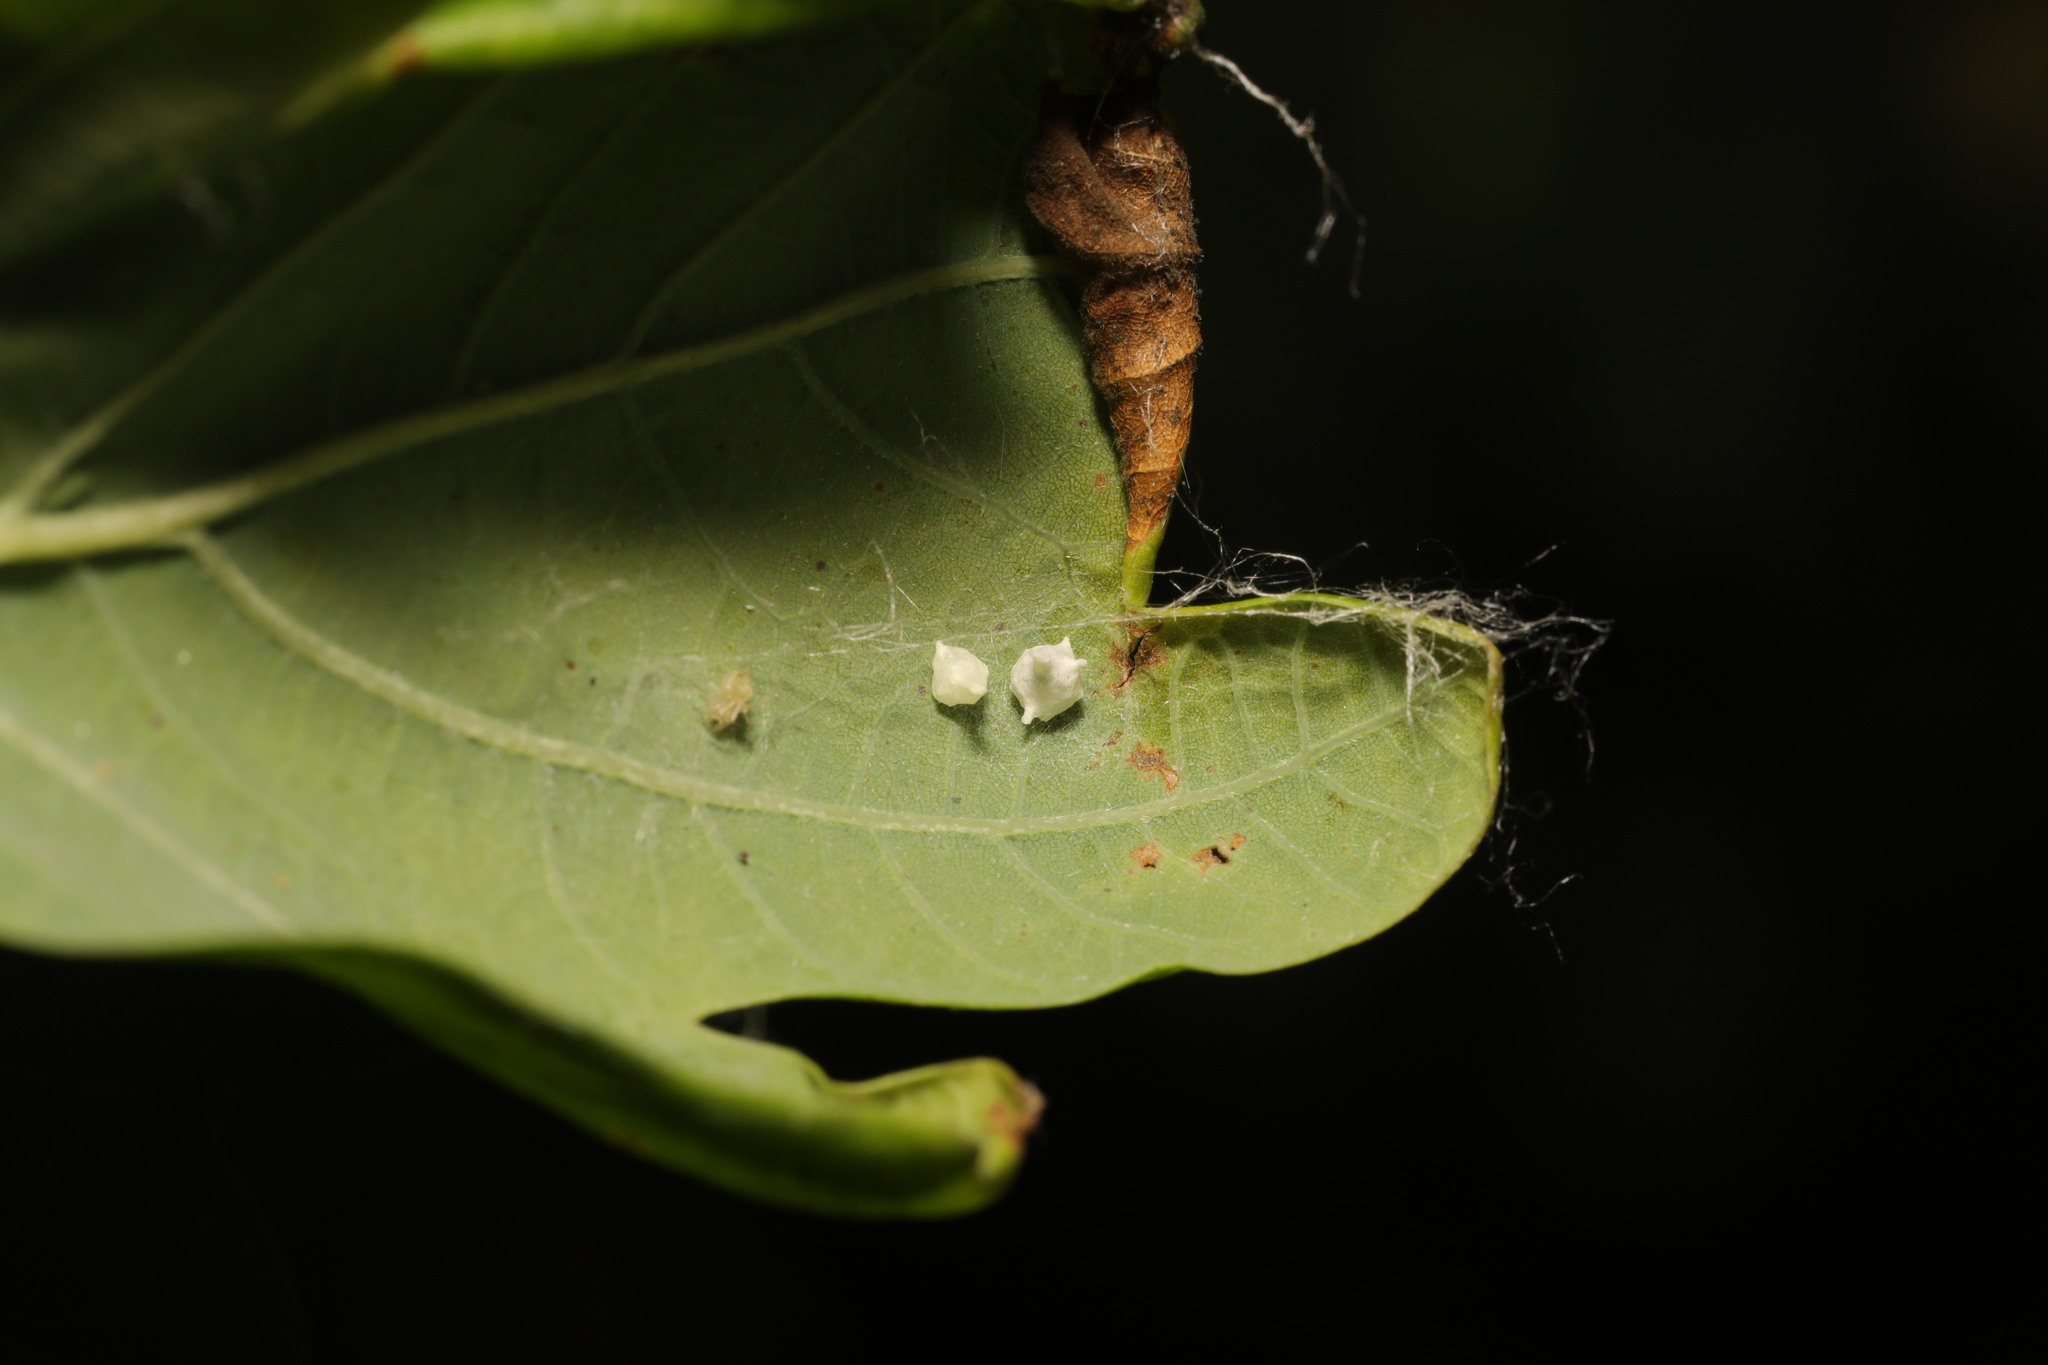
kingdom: Animalia
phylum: Arthropoda
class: Arachnida
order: Araneae
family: Theridiidae
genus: Paidiscura
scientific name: Paidiscura pallens
